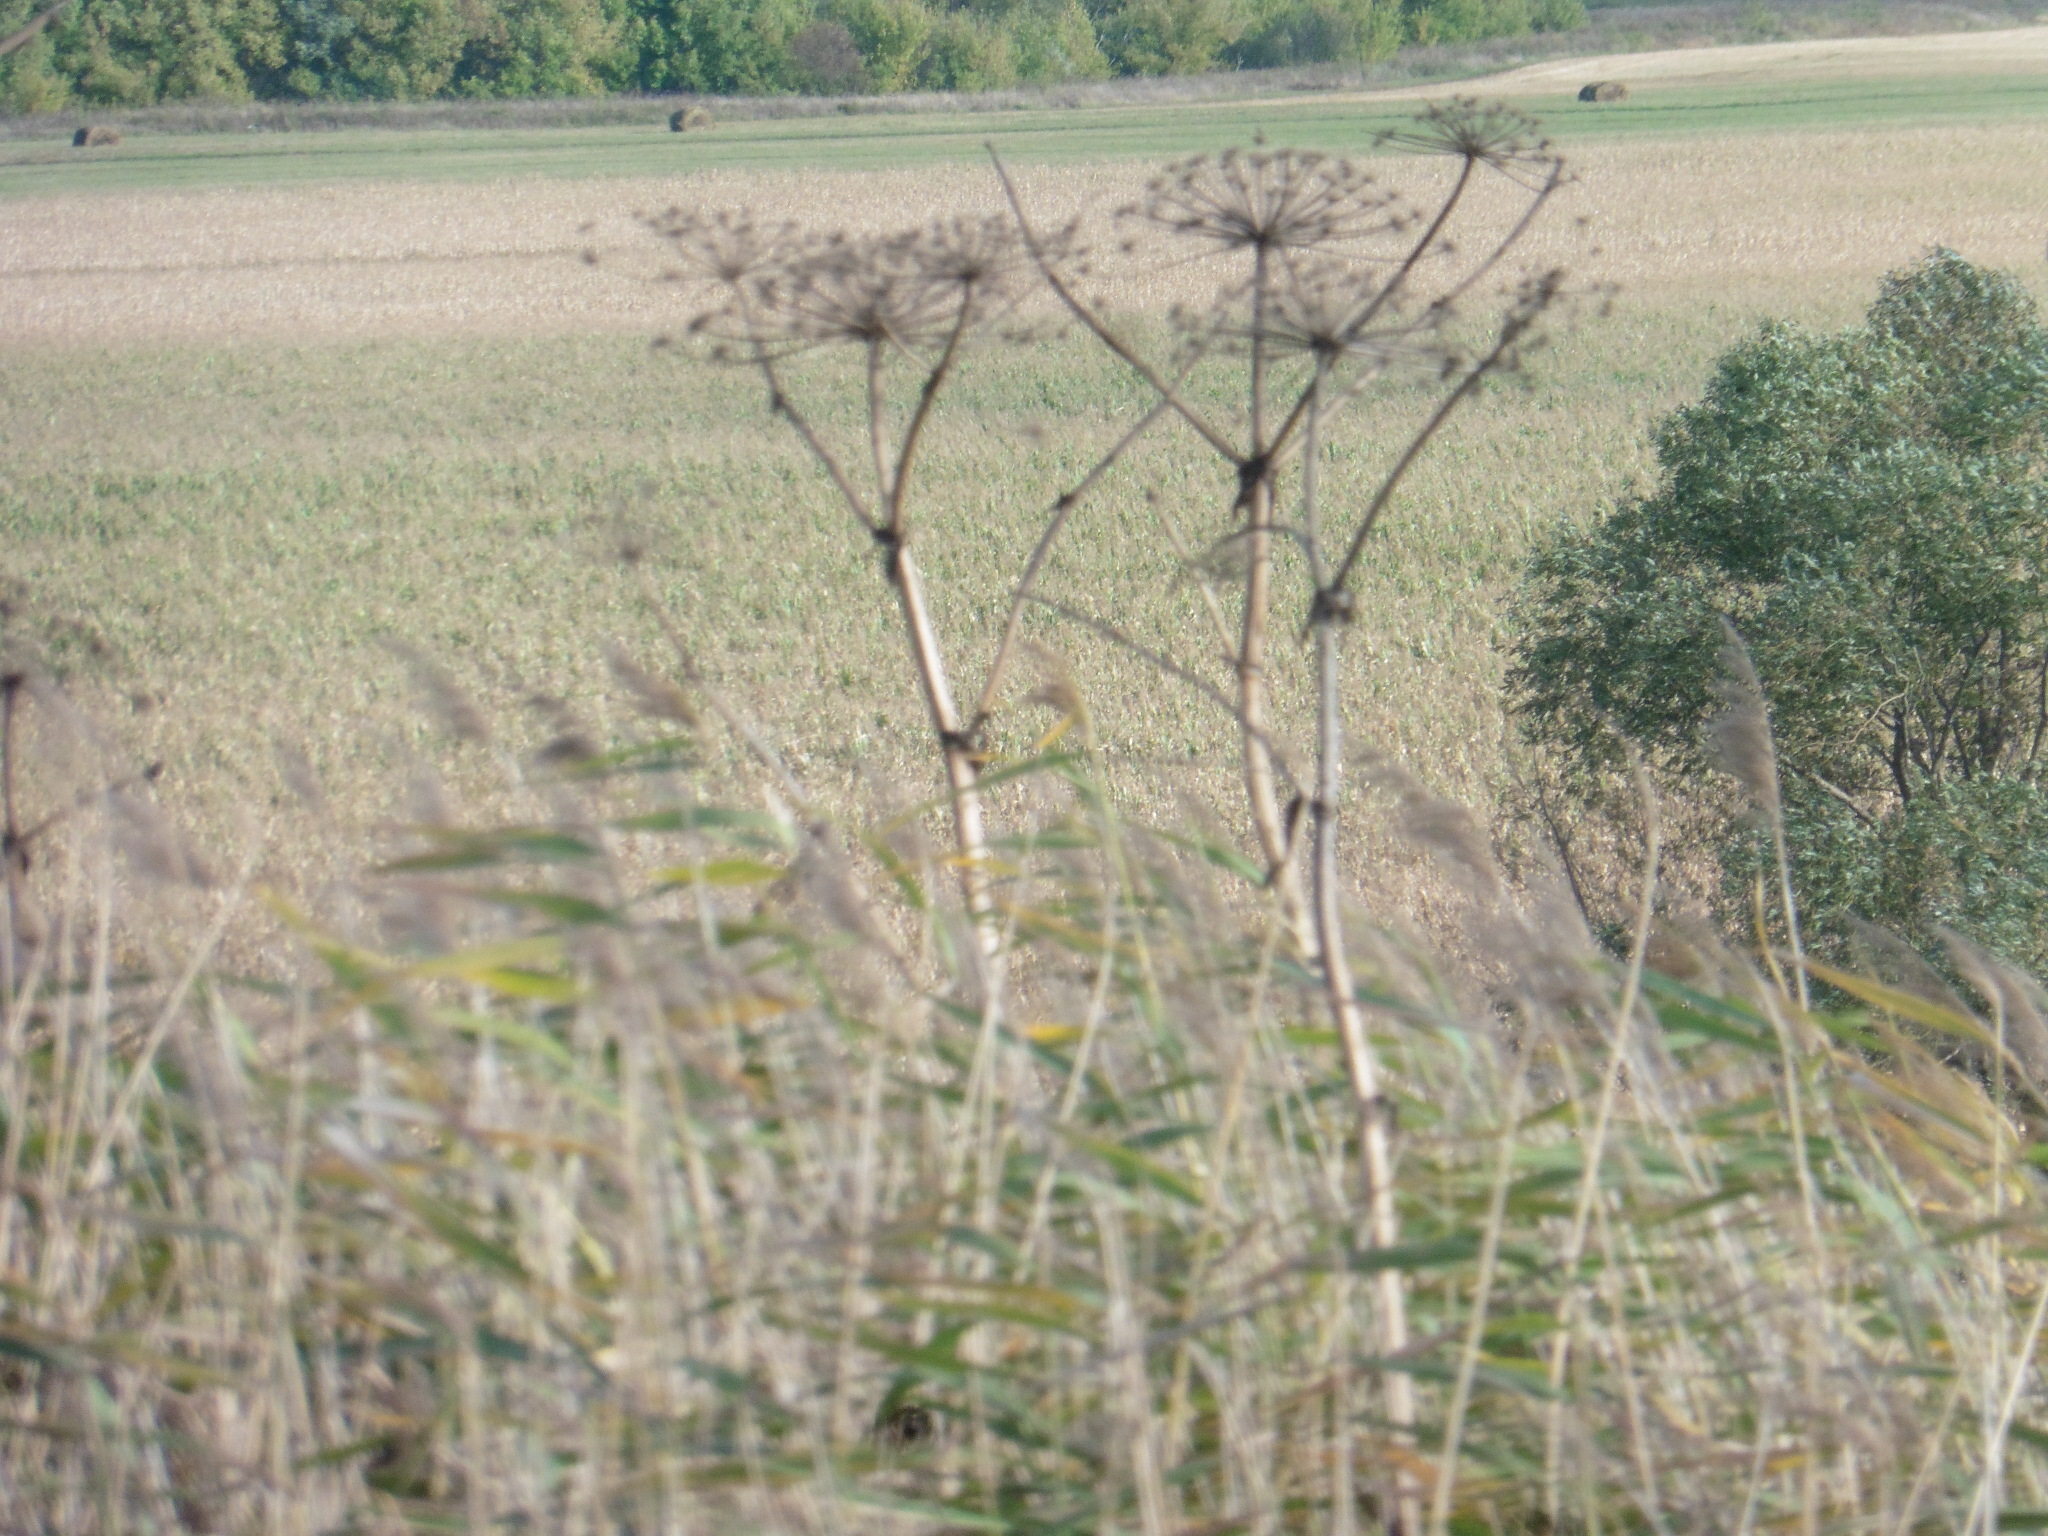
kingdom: Plantae
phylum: Tracheophyta
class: Magnoliopsida
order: Apiales
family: Apiaceae
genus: Heracleum
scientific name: Heracleum sosnowskyi
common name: Sosnowsky's hogweed
